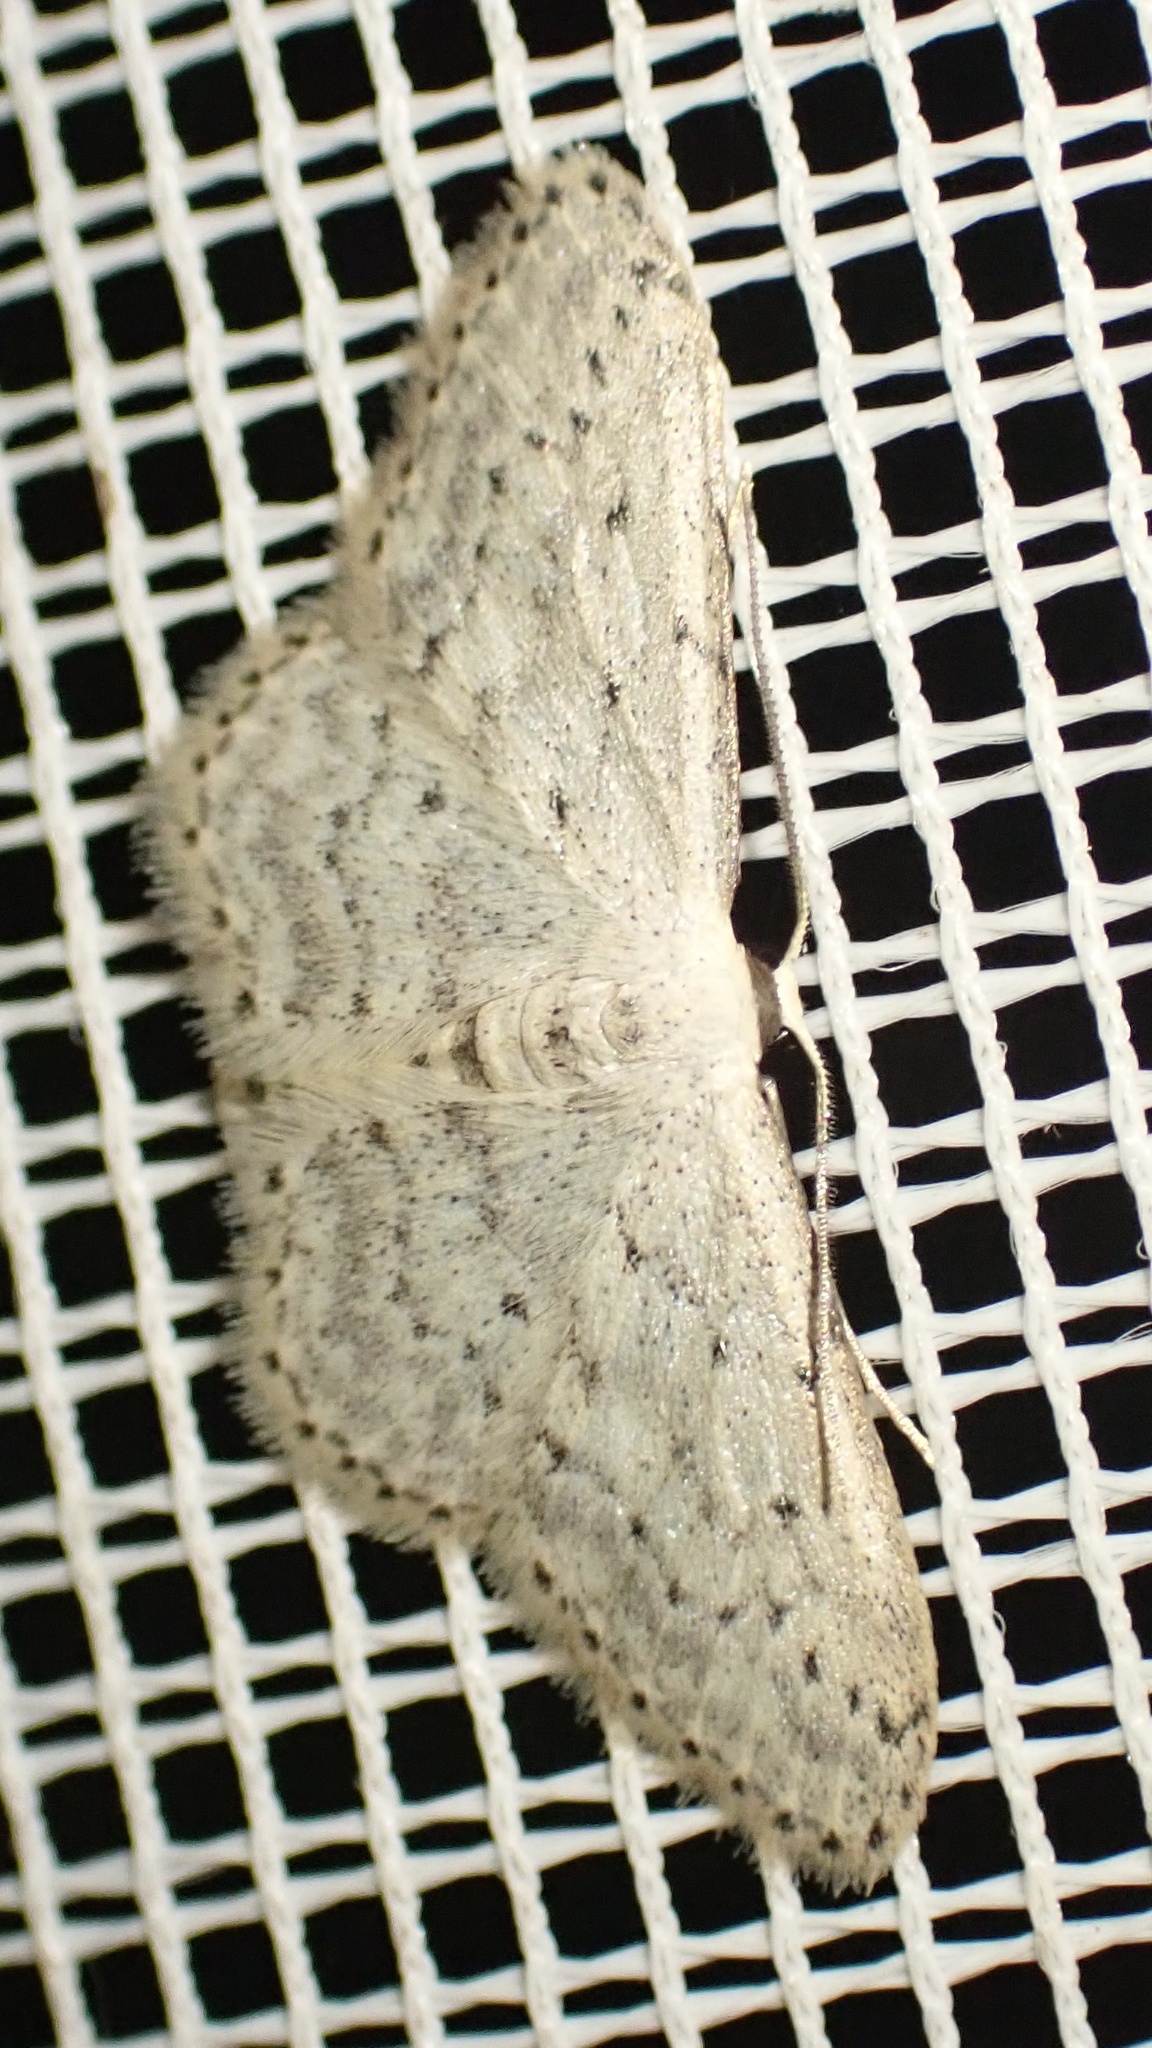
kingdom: Animalia
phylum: Arthropoda
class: Insecta
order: Lepidoptera
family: Geometridae
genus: Idaea
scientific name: Idaea seriata
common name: Small dusty wave
